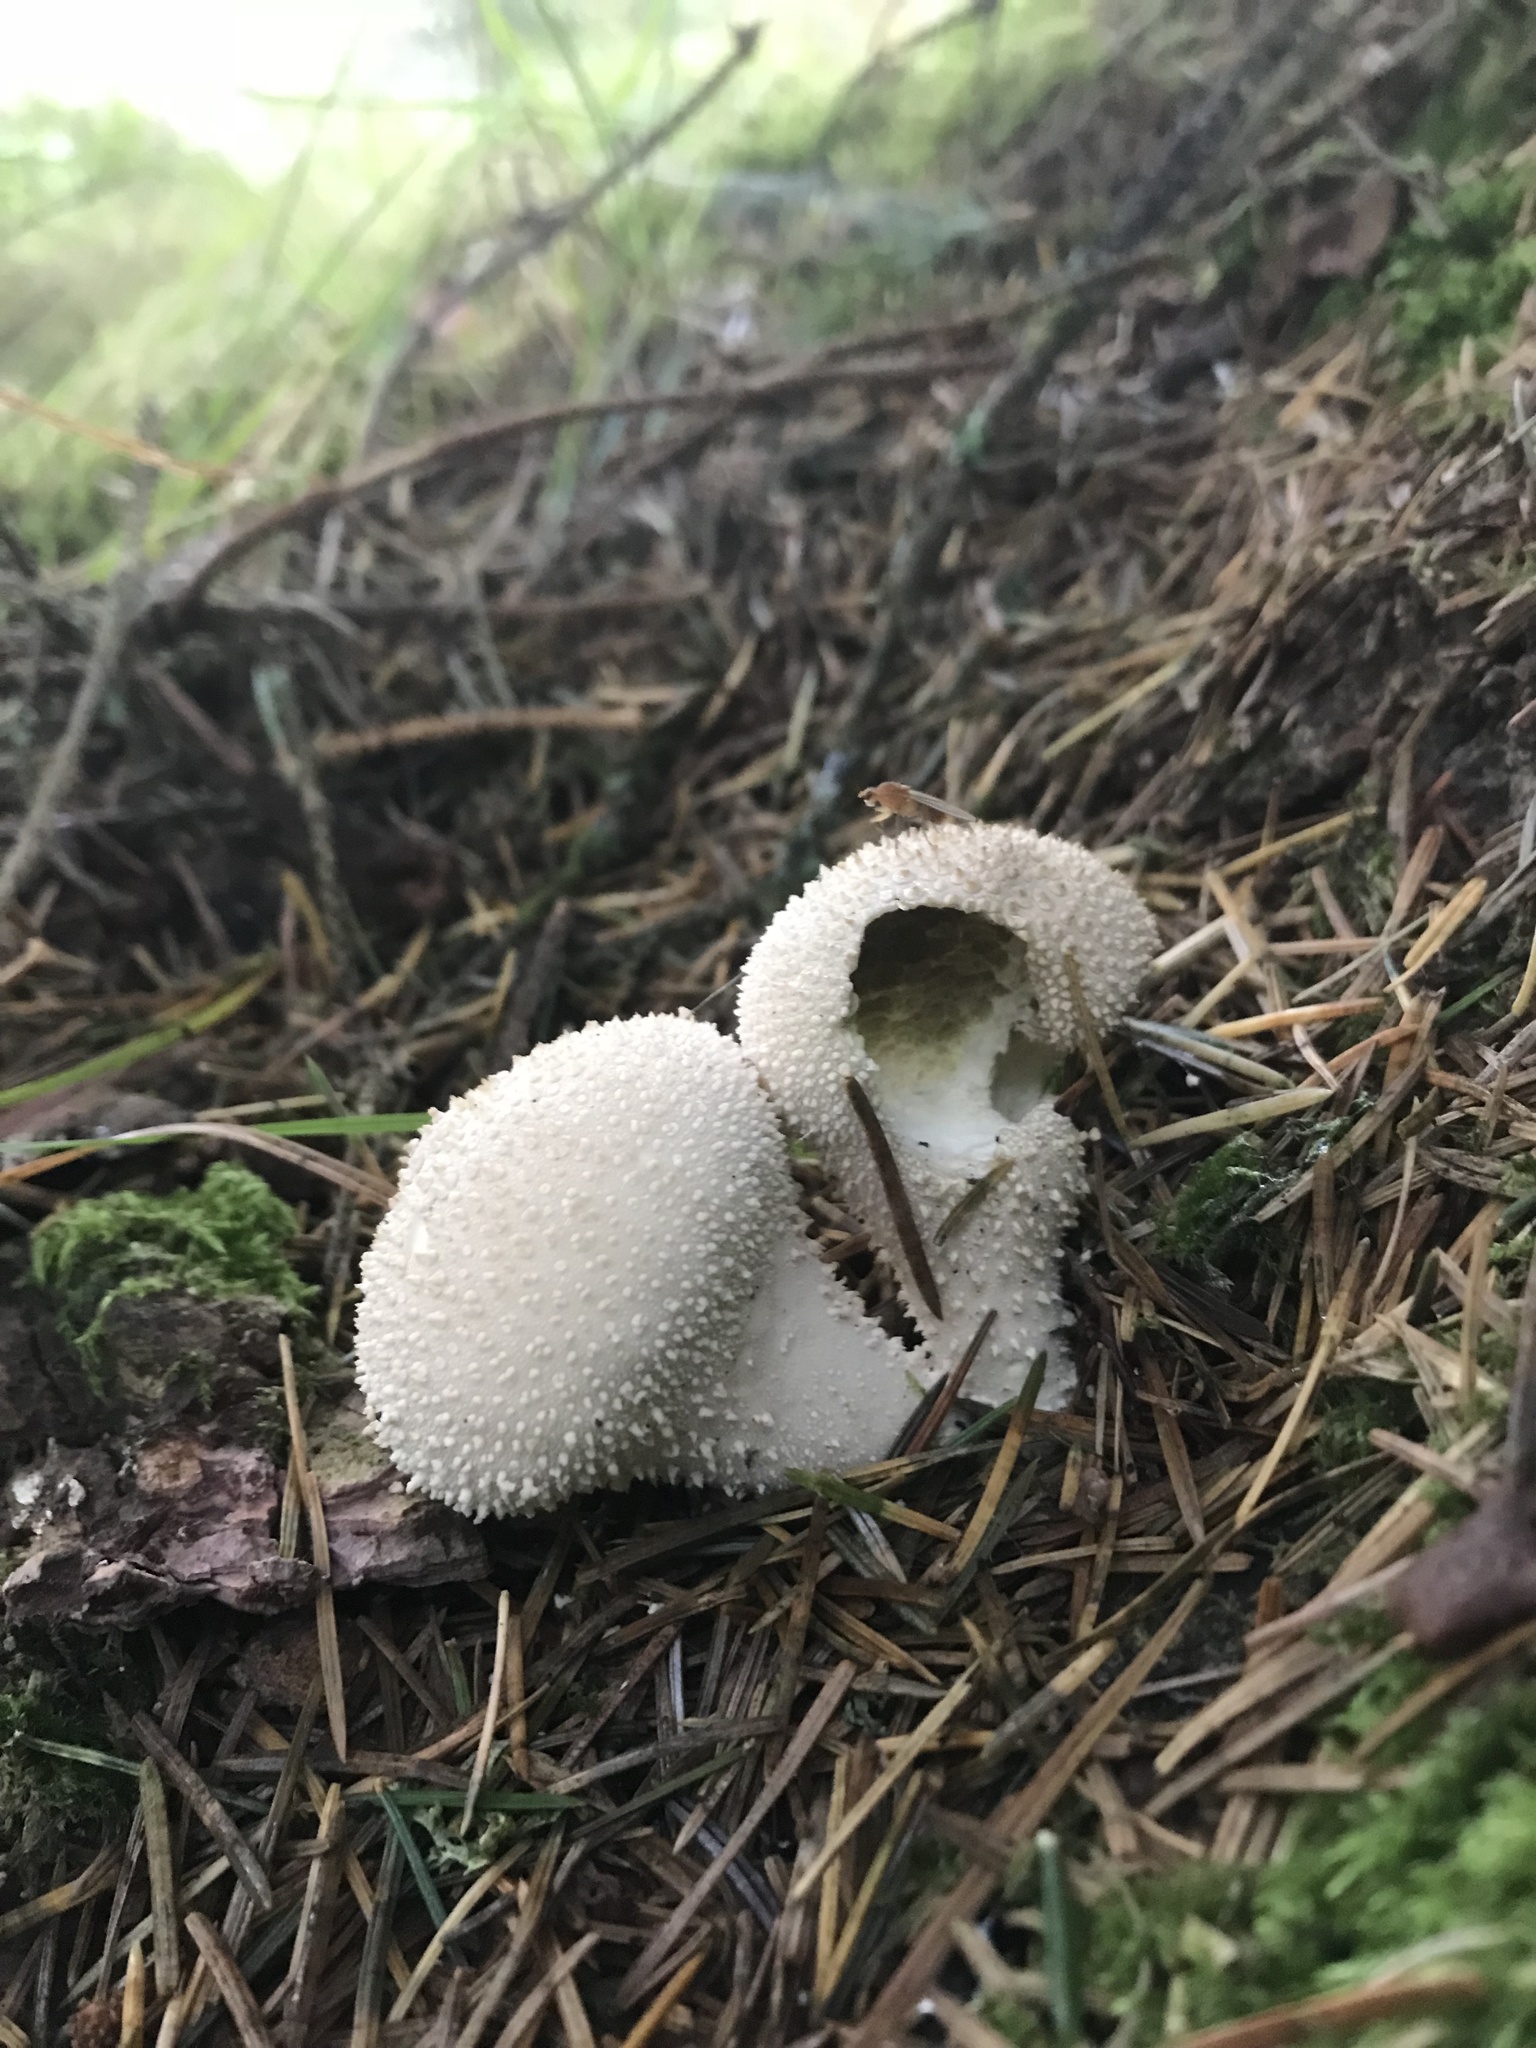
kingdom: Fungi
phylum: Basidiomycota
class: Agaricomycetes
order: Agaricales
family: Lycoperdaceae
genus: Lycoperdon
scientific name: Lycoperdon perlatum
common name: Common puffball
